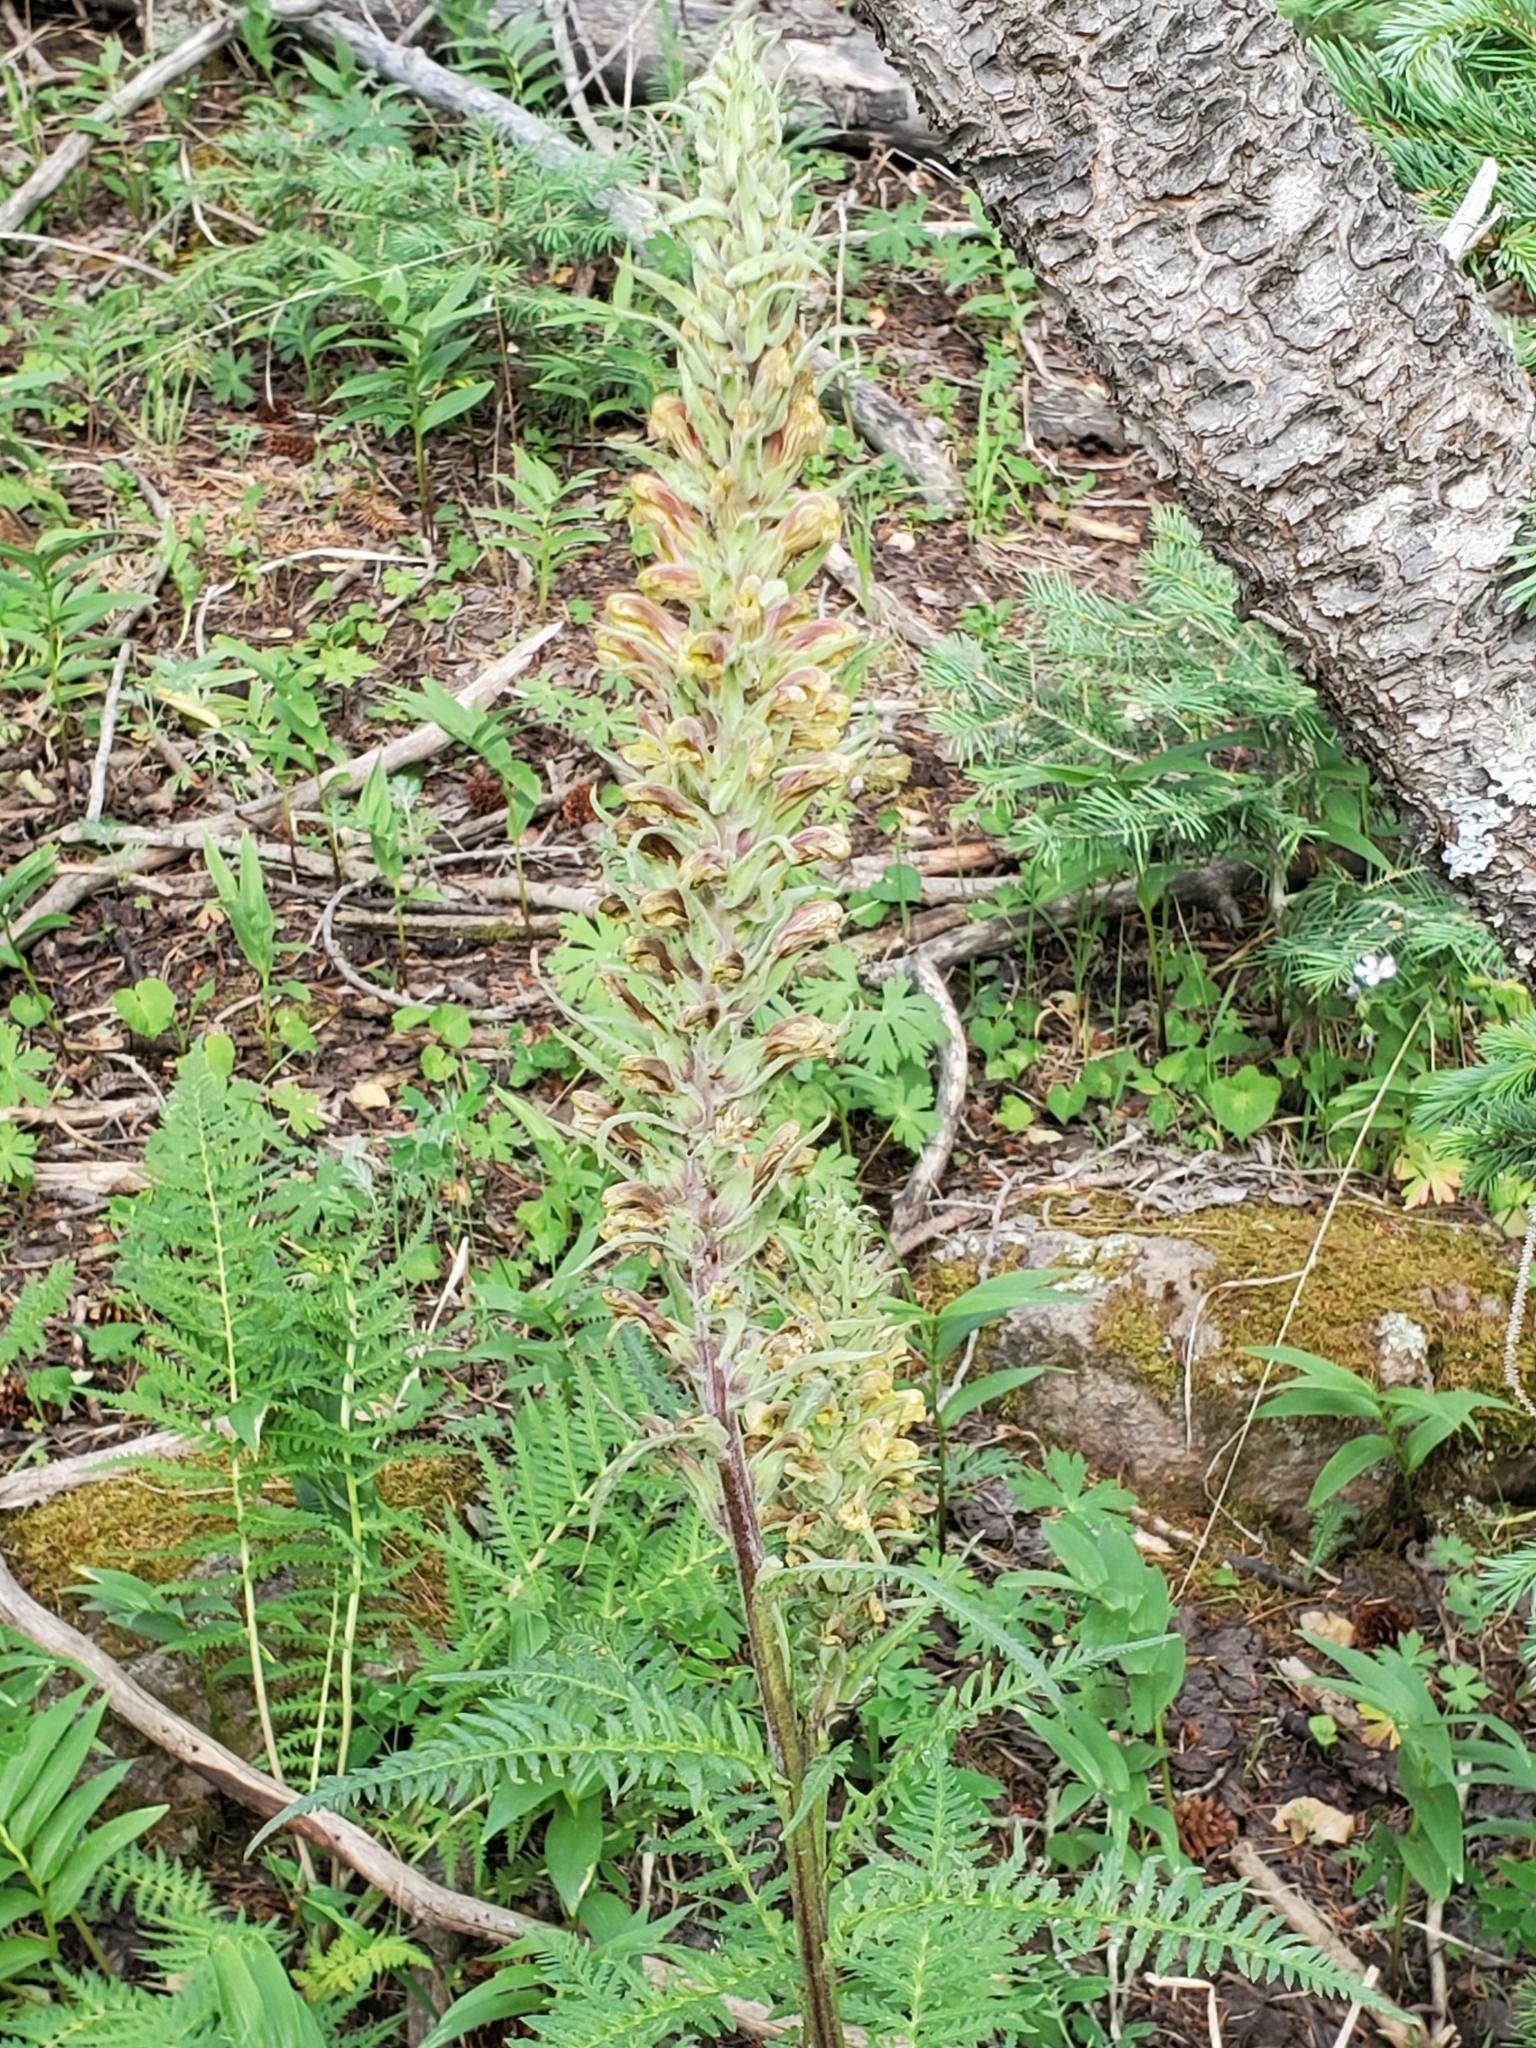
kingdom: Plantae
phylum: Tracheophyta
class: Magnoliopsida
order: Lamiales
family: Orobanchaceae
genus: Pedicularis
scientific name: Pedicularis procera
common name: Gray's lousewort
